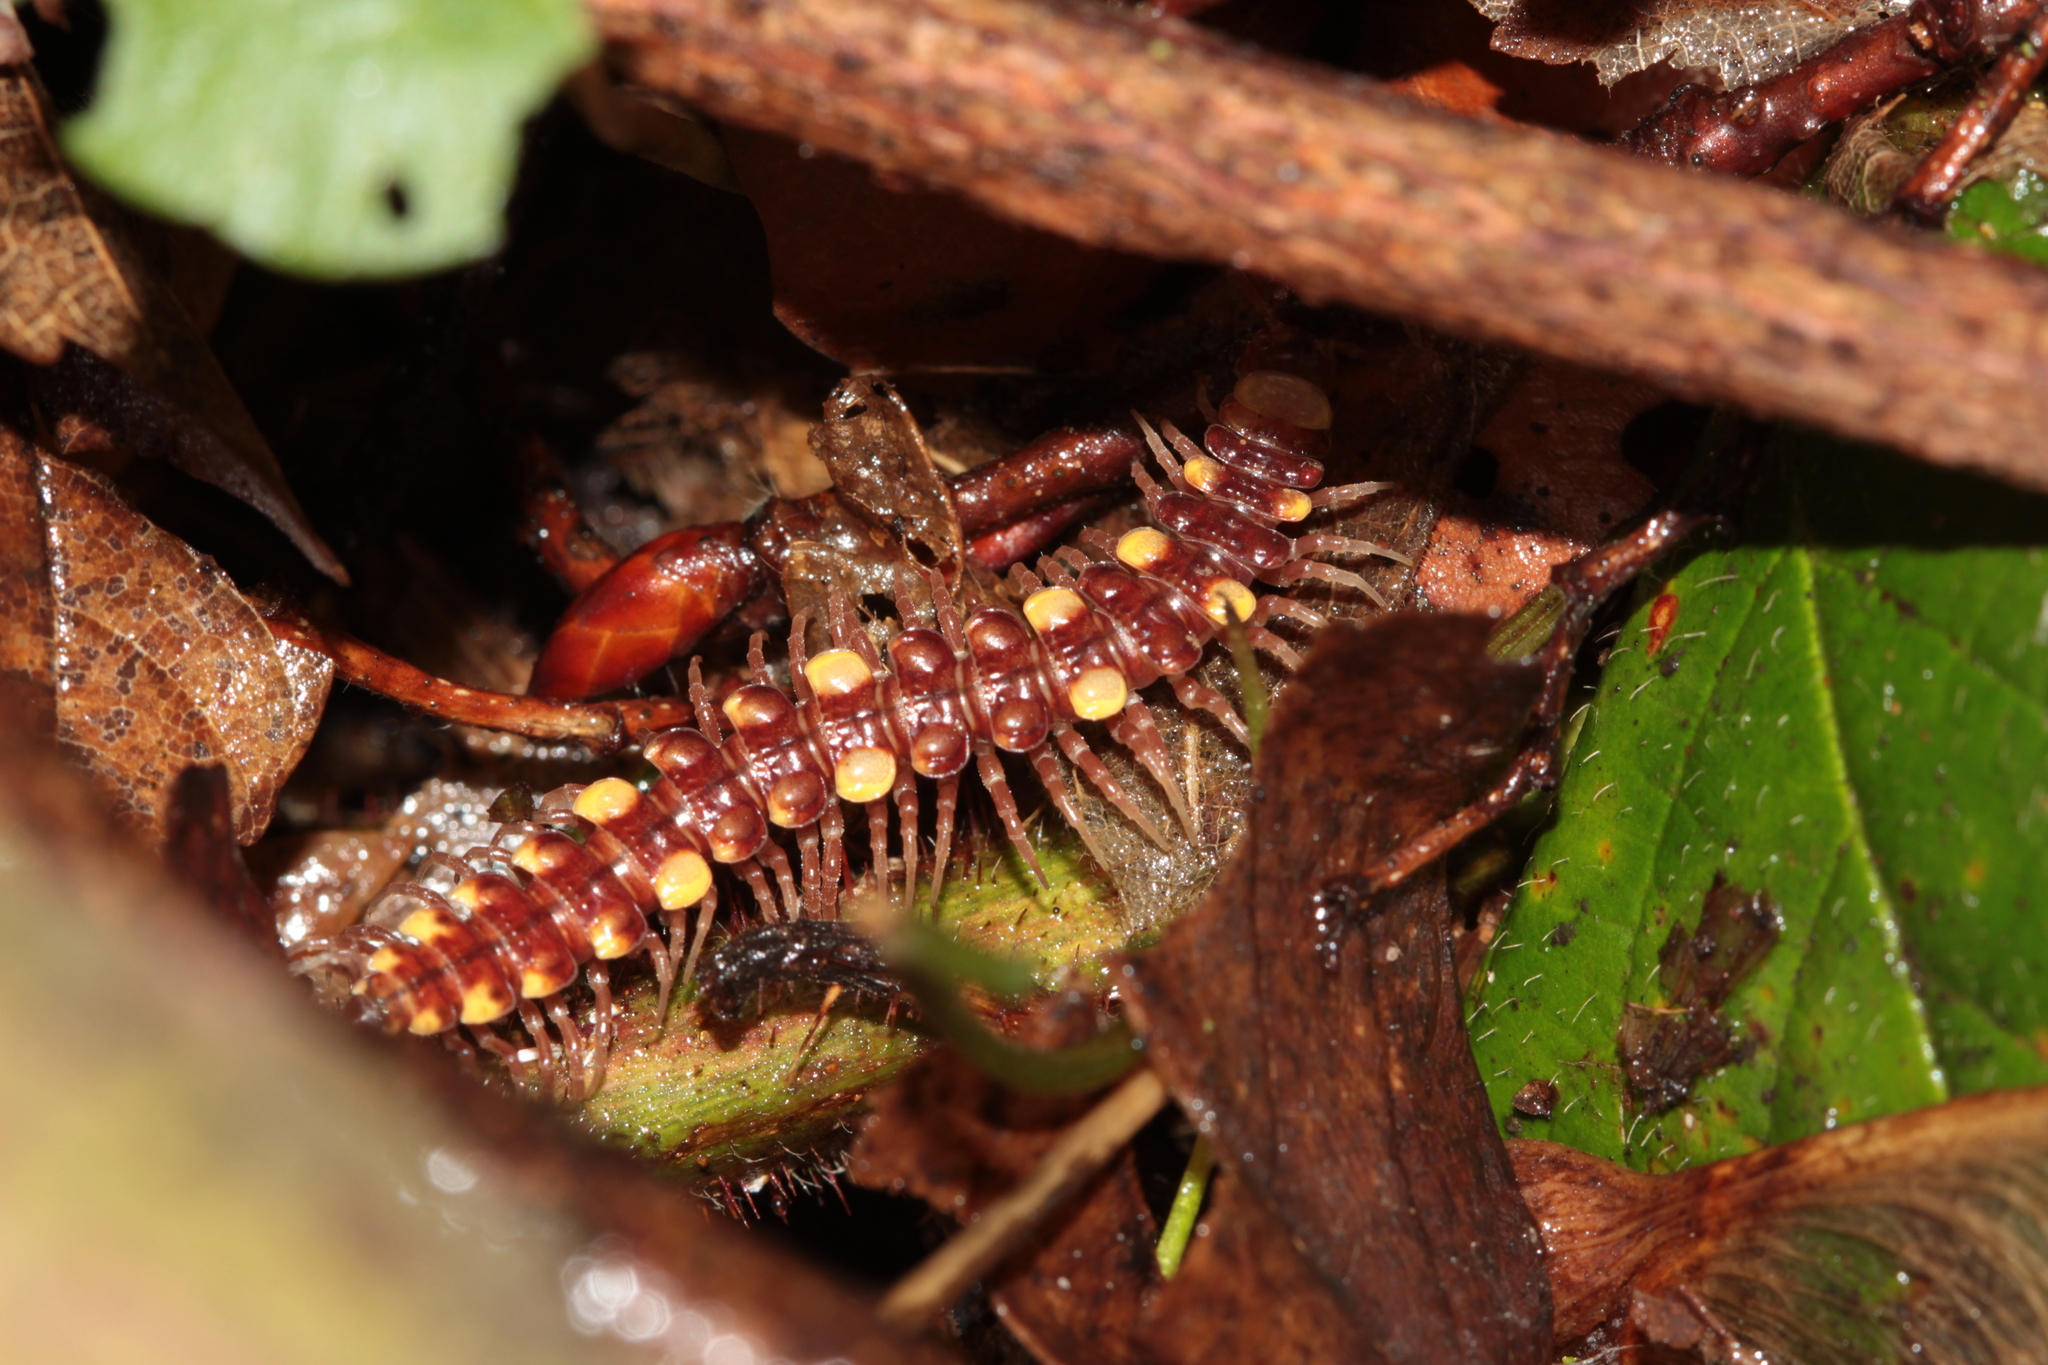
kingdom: Animalia
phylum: Arthropoda
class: Diplopoda
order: Polydesmida
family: Polydesmidae
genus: Polydesmus
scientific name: Polydesmus collaris
